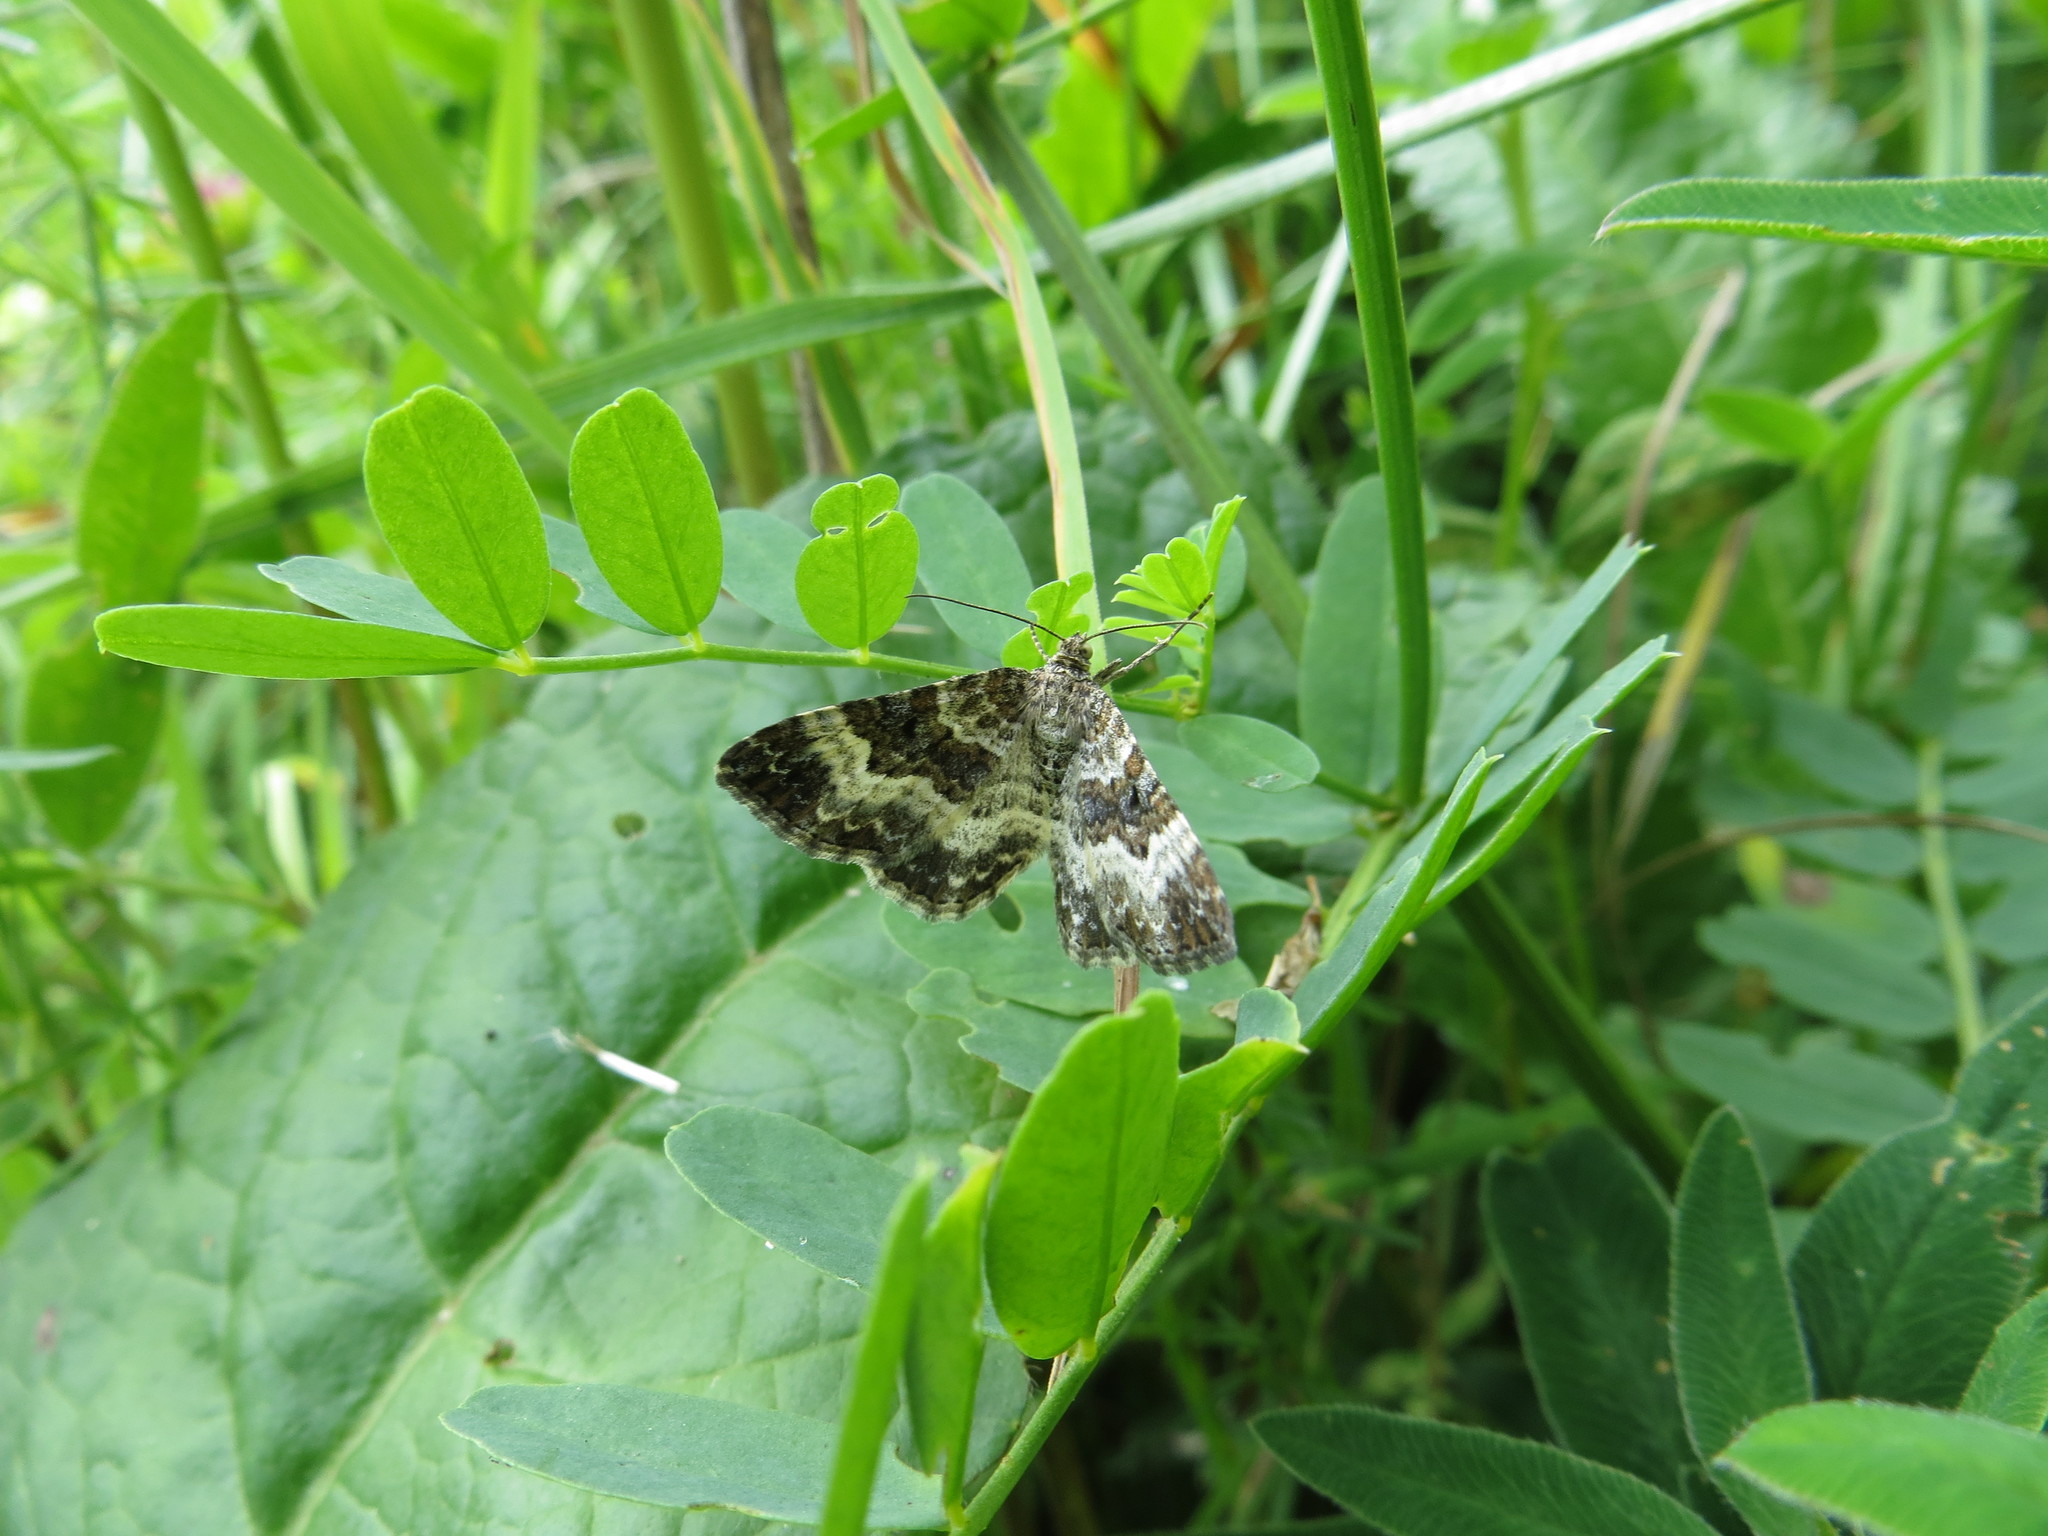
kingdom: Animalia
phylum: Arthropoda
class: Insecta
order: Lepidoptera
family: Geometridae
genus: Epirrhoe
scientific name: Epirrhoe alternata
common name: Common carpet
